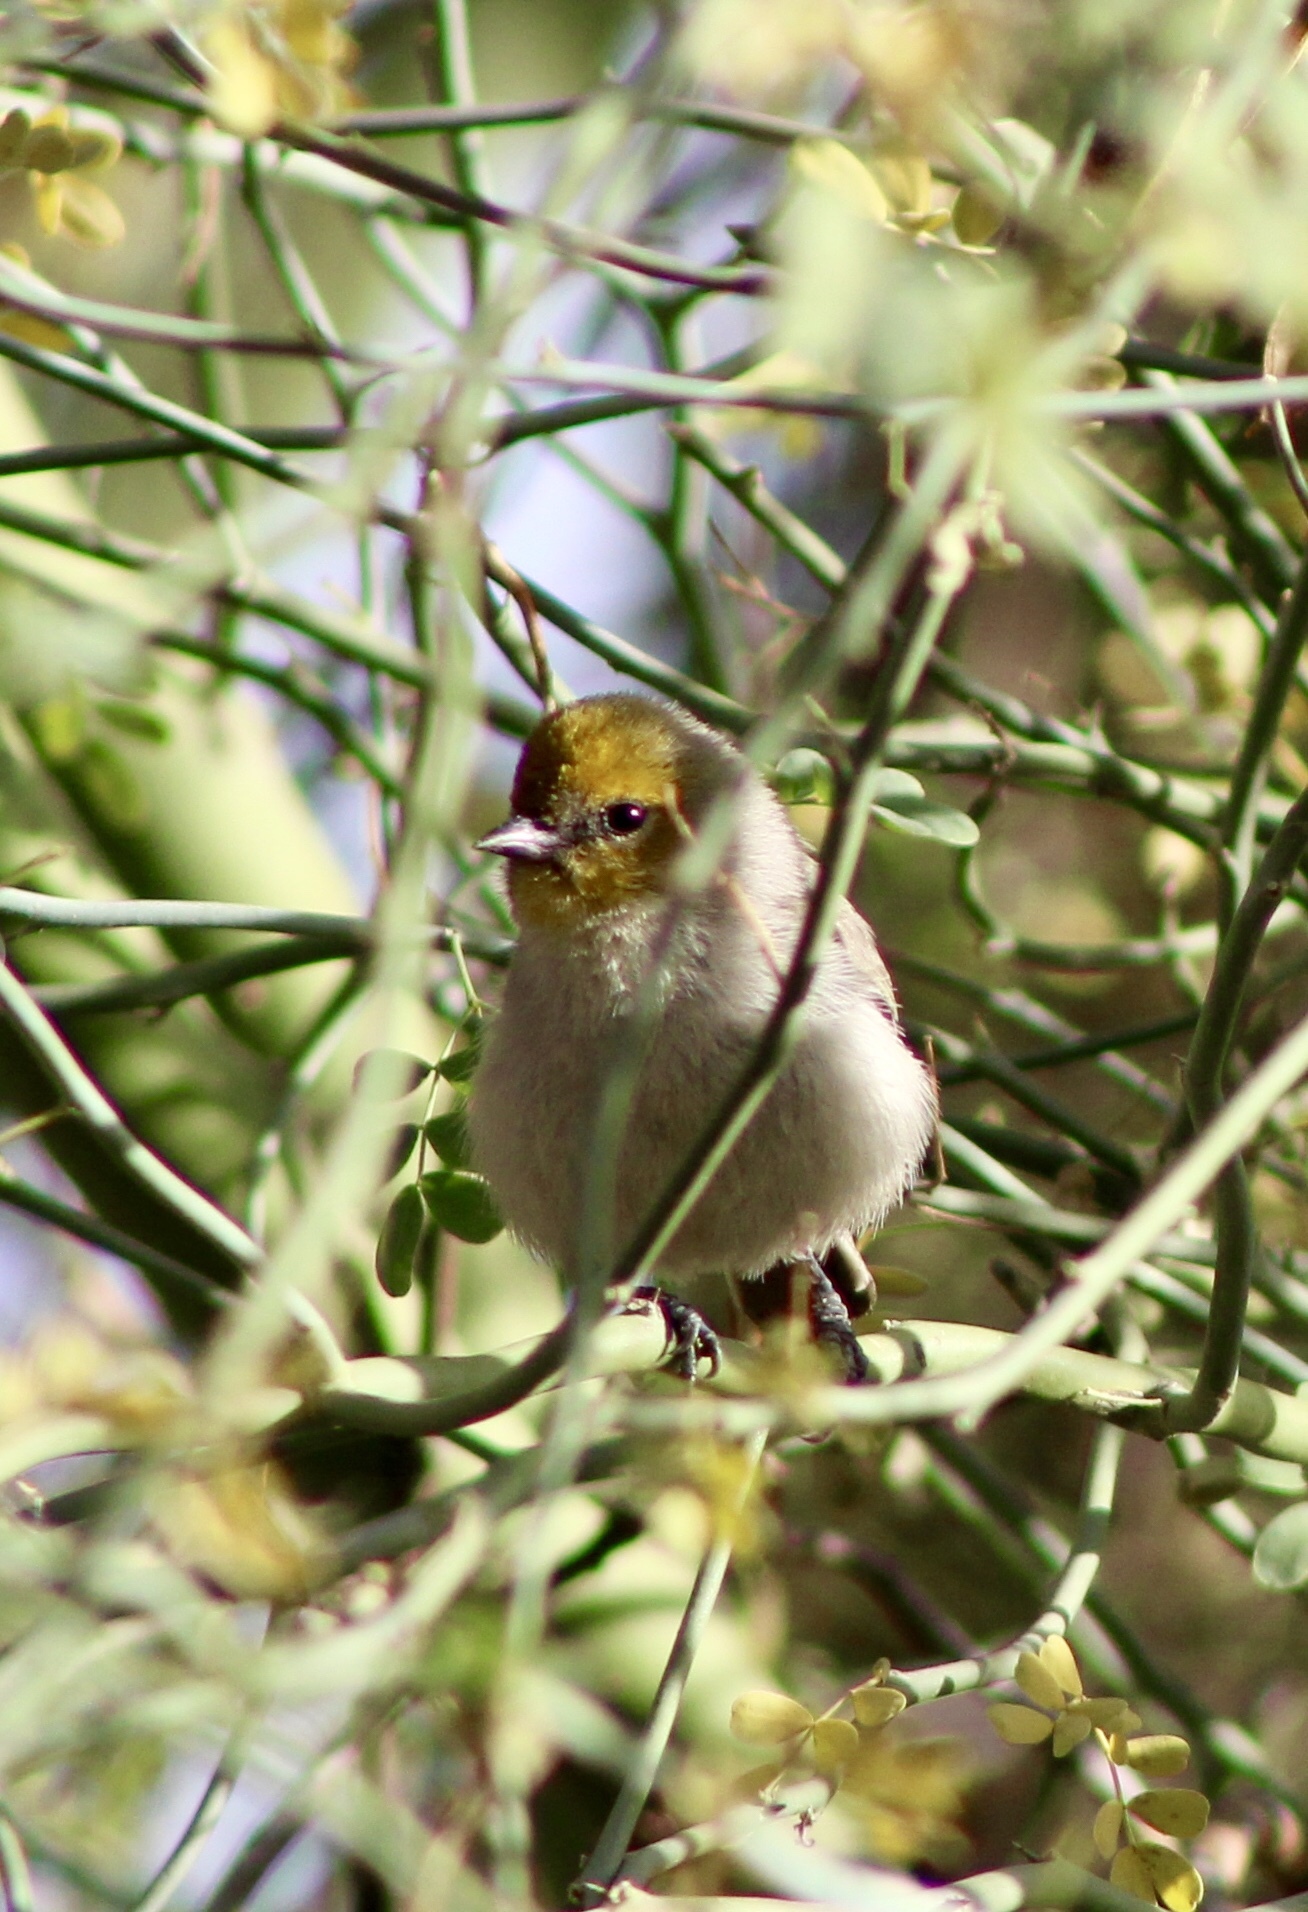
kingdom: Animalia
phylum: Chordata
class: Aves
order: Passeriformes
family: Remizidae
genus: Auriparus
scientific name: Auriparus flaviceps
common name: Verdin
